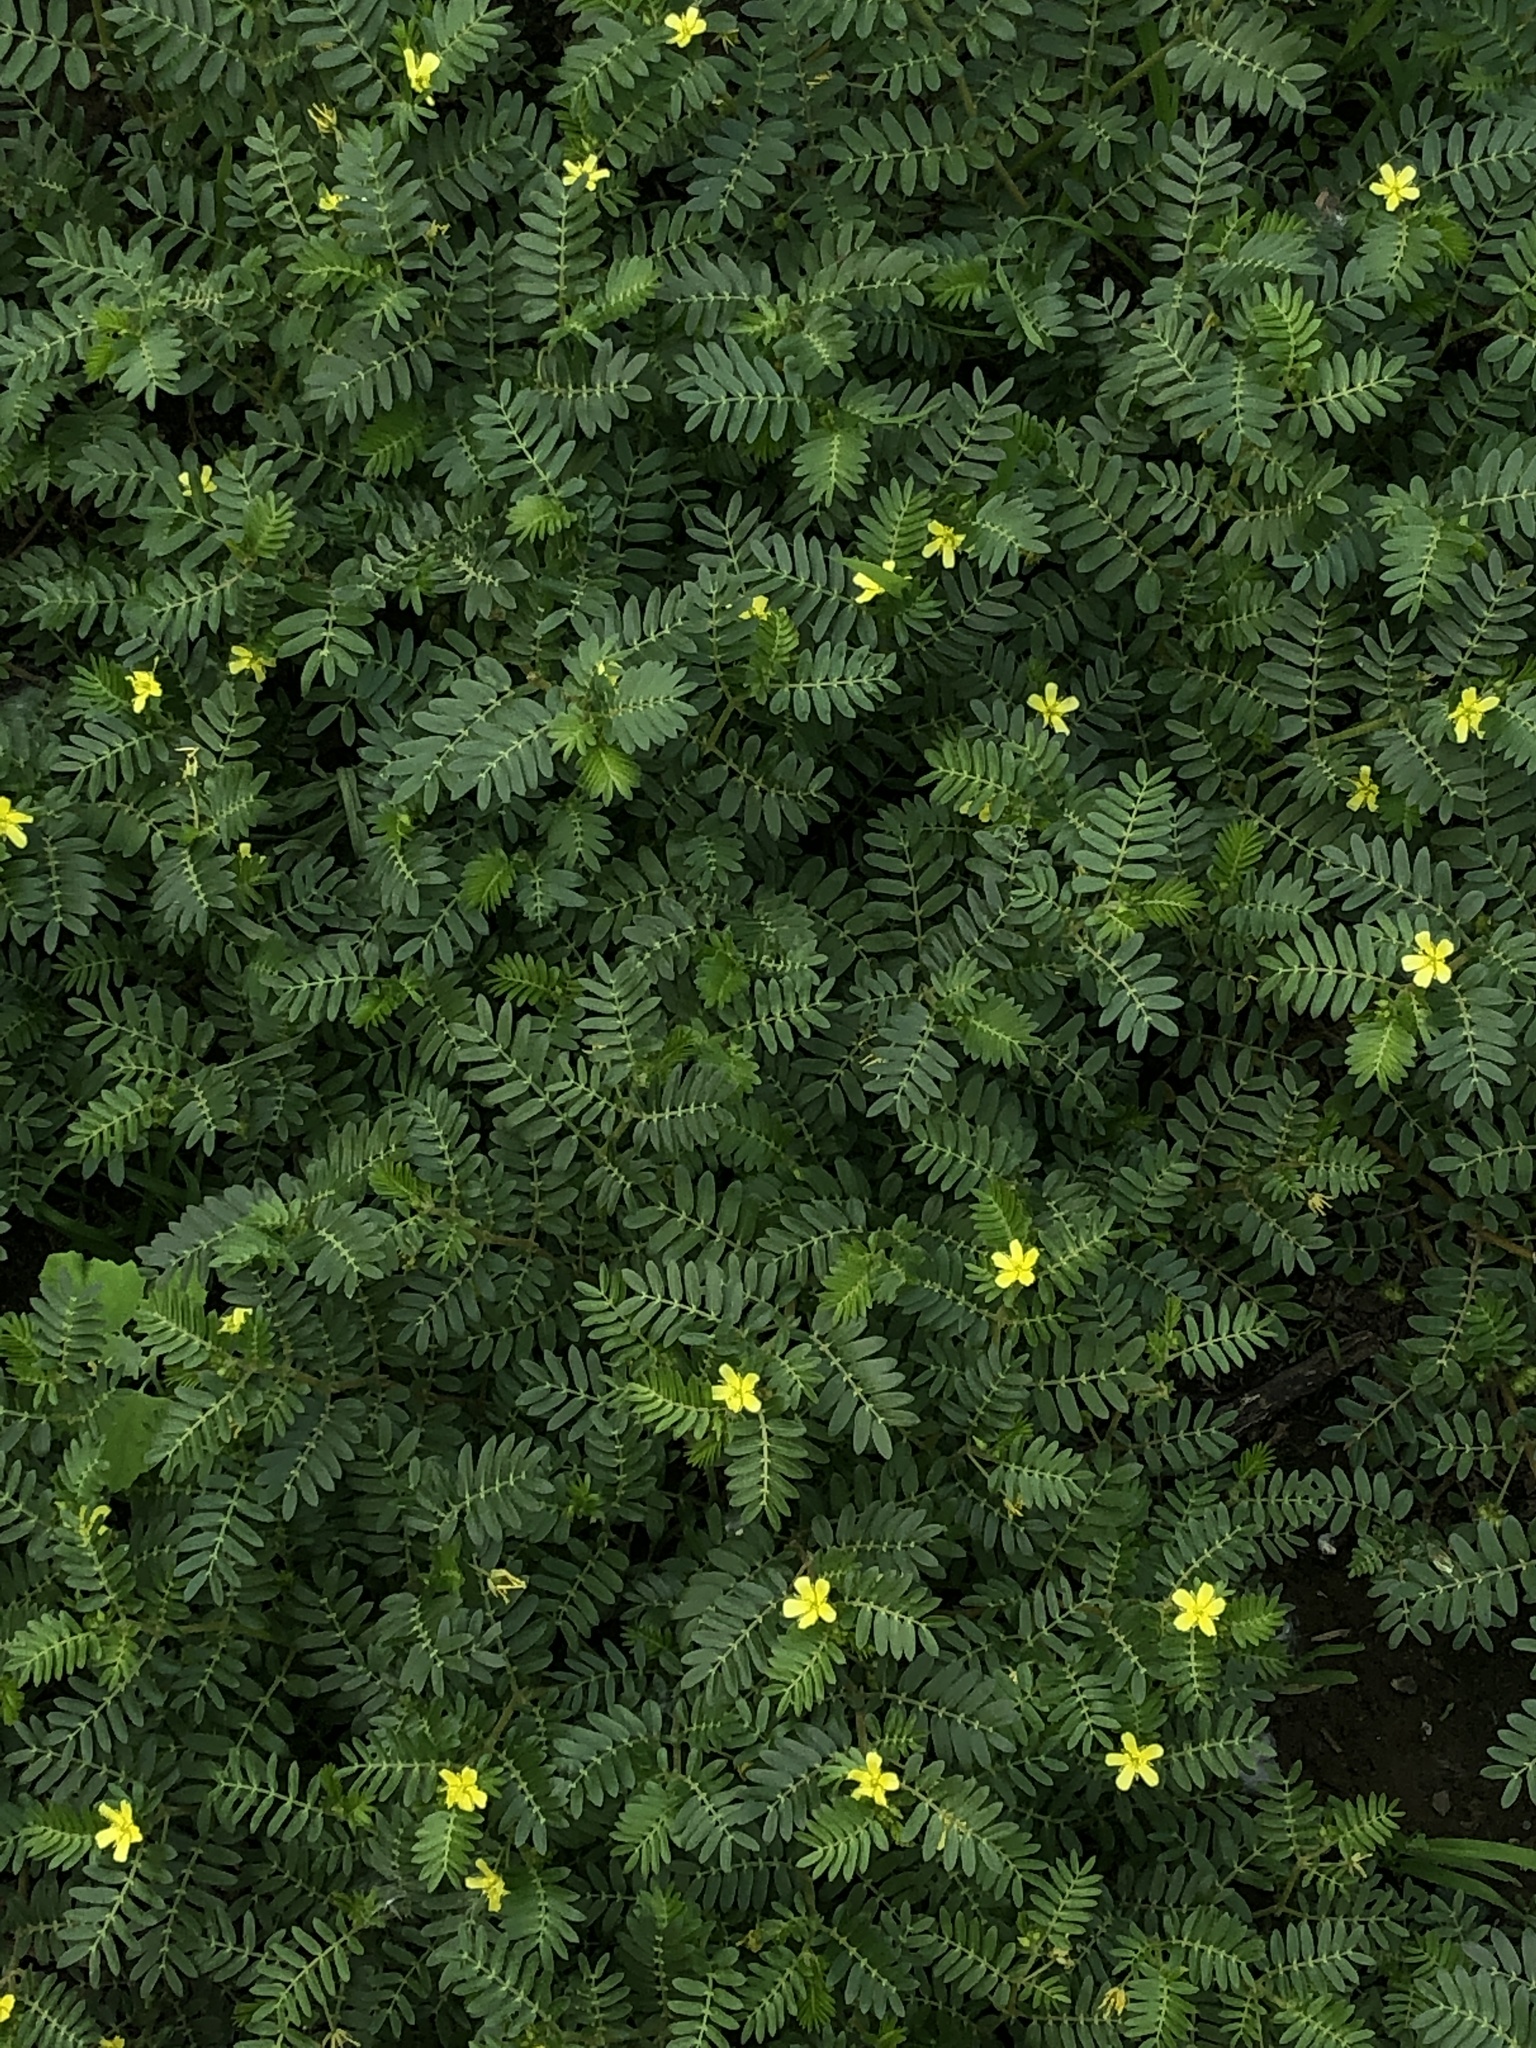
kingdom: Plantae
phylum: Tracheophyta
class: Magnoliopsida
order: Zygophyllales
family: Zygophyllaceae
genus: Tribulus
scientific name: Tribulus terrestris
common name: Puncturevine
